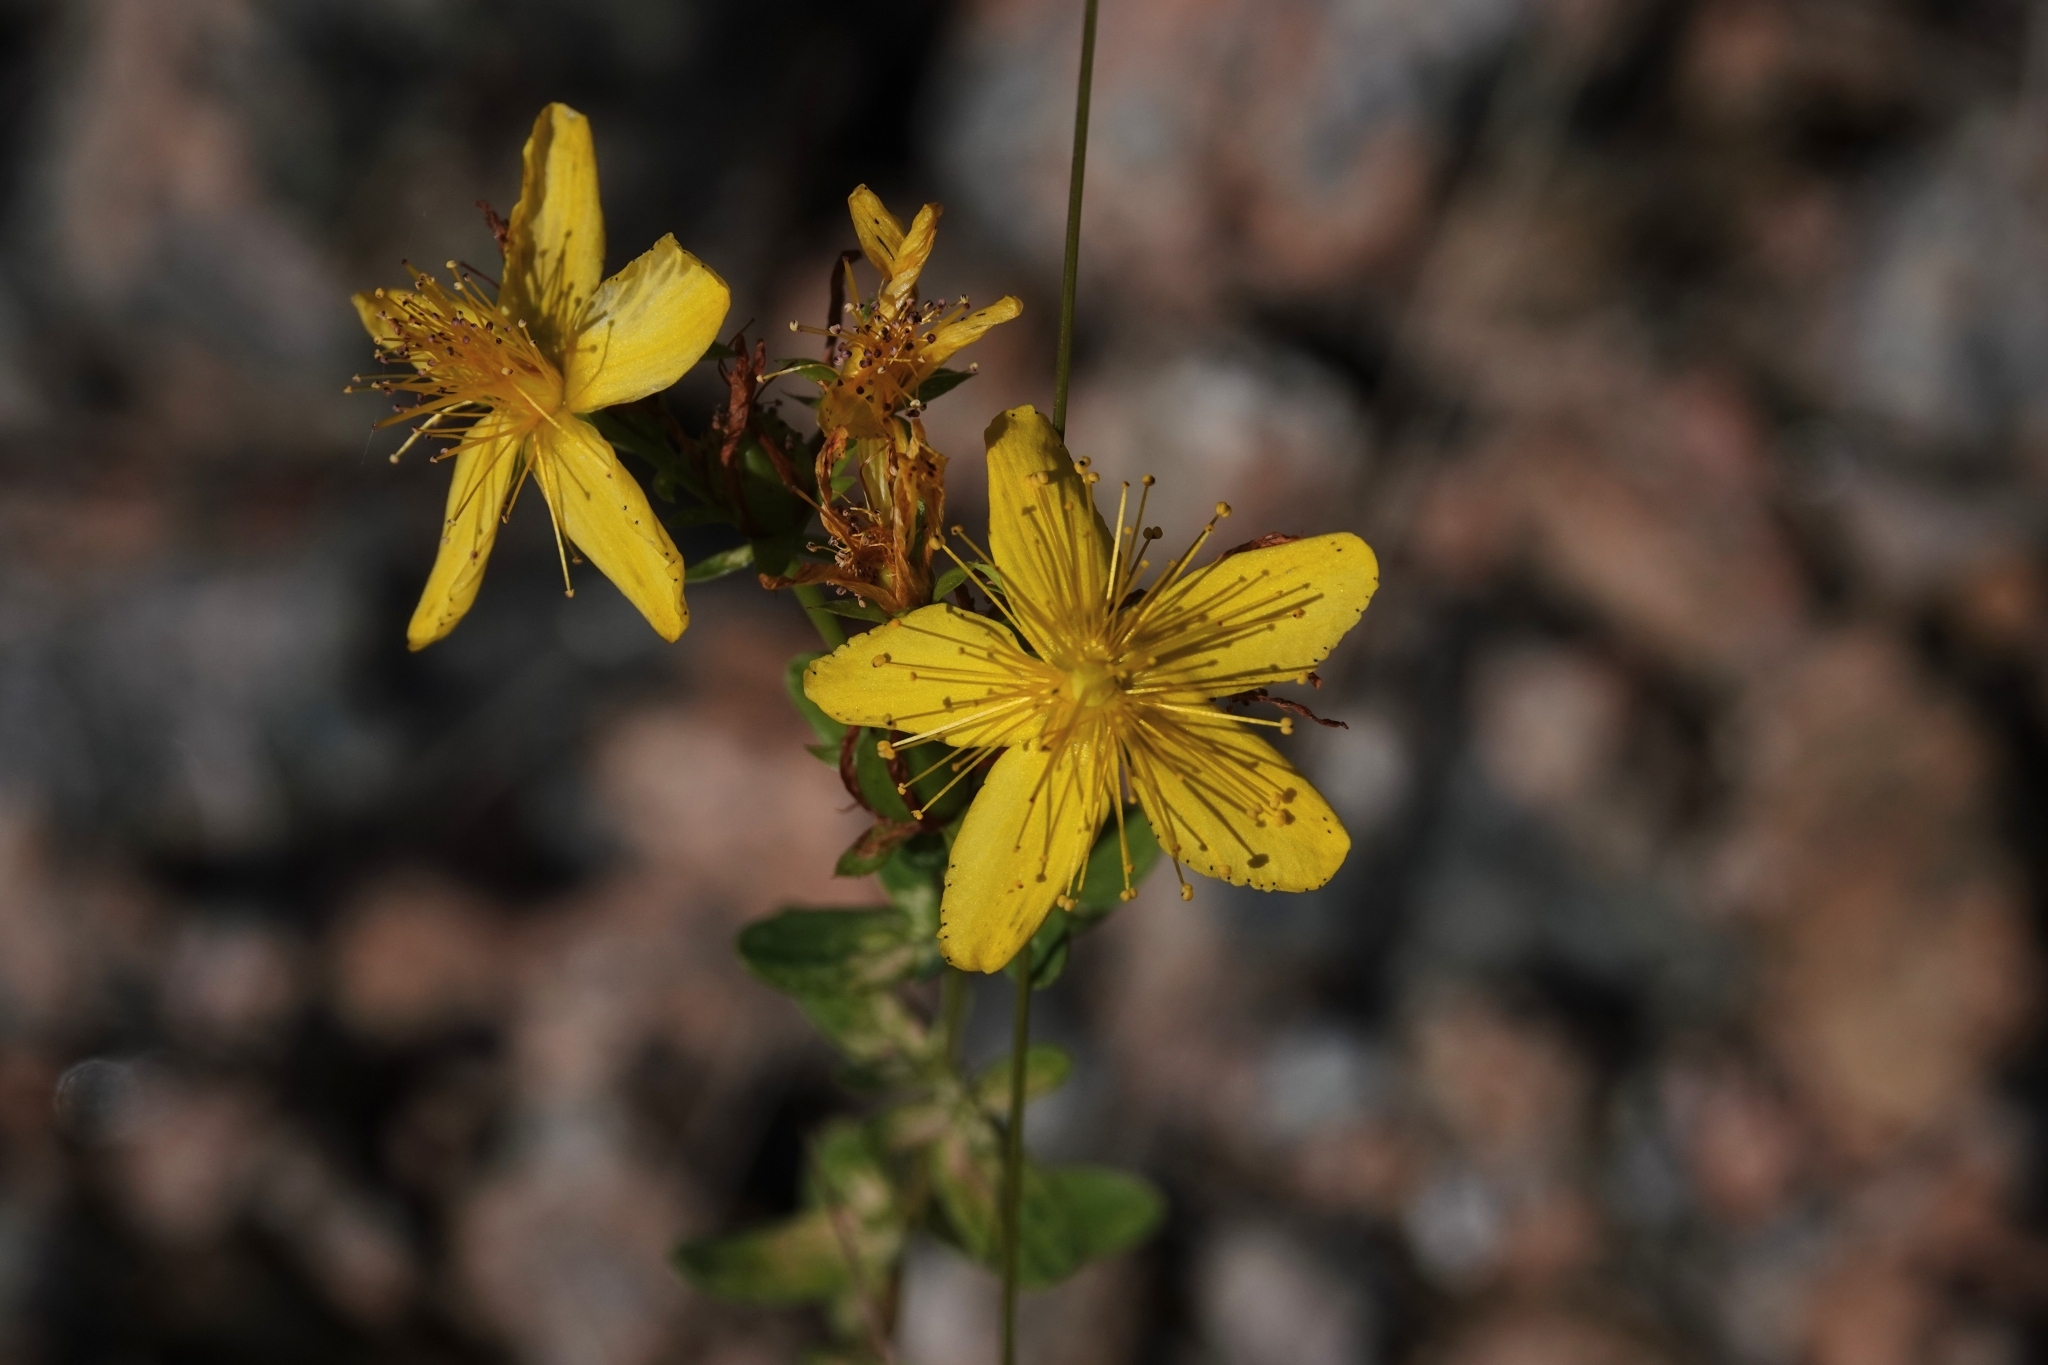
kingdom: Plantae
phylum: Tracheophyta
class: Magnoliopsida
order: Malpighiales
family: Hypericaceae
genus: Hypericum
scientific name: Hypericum perforatum
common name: Common st. johnswort
